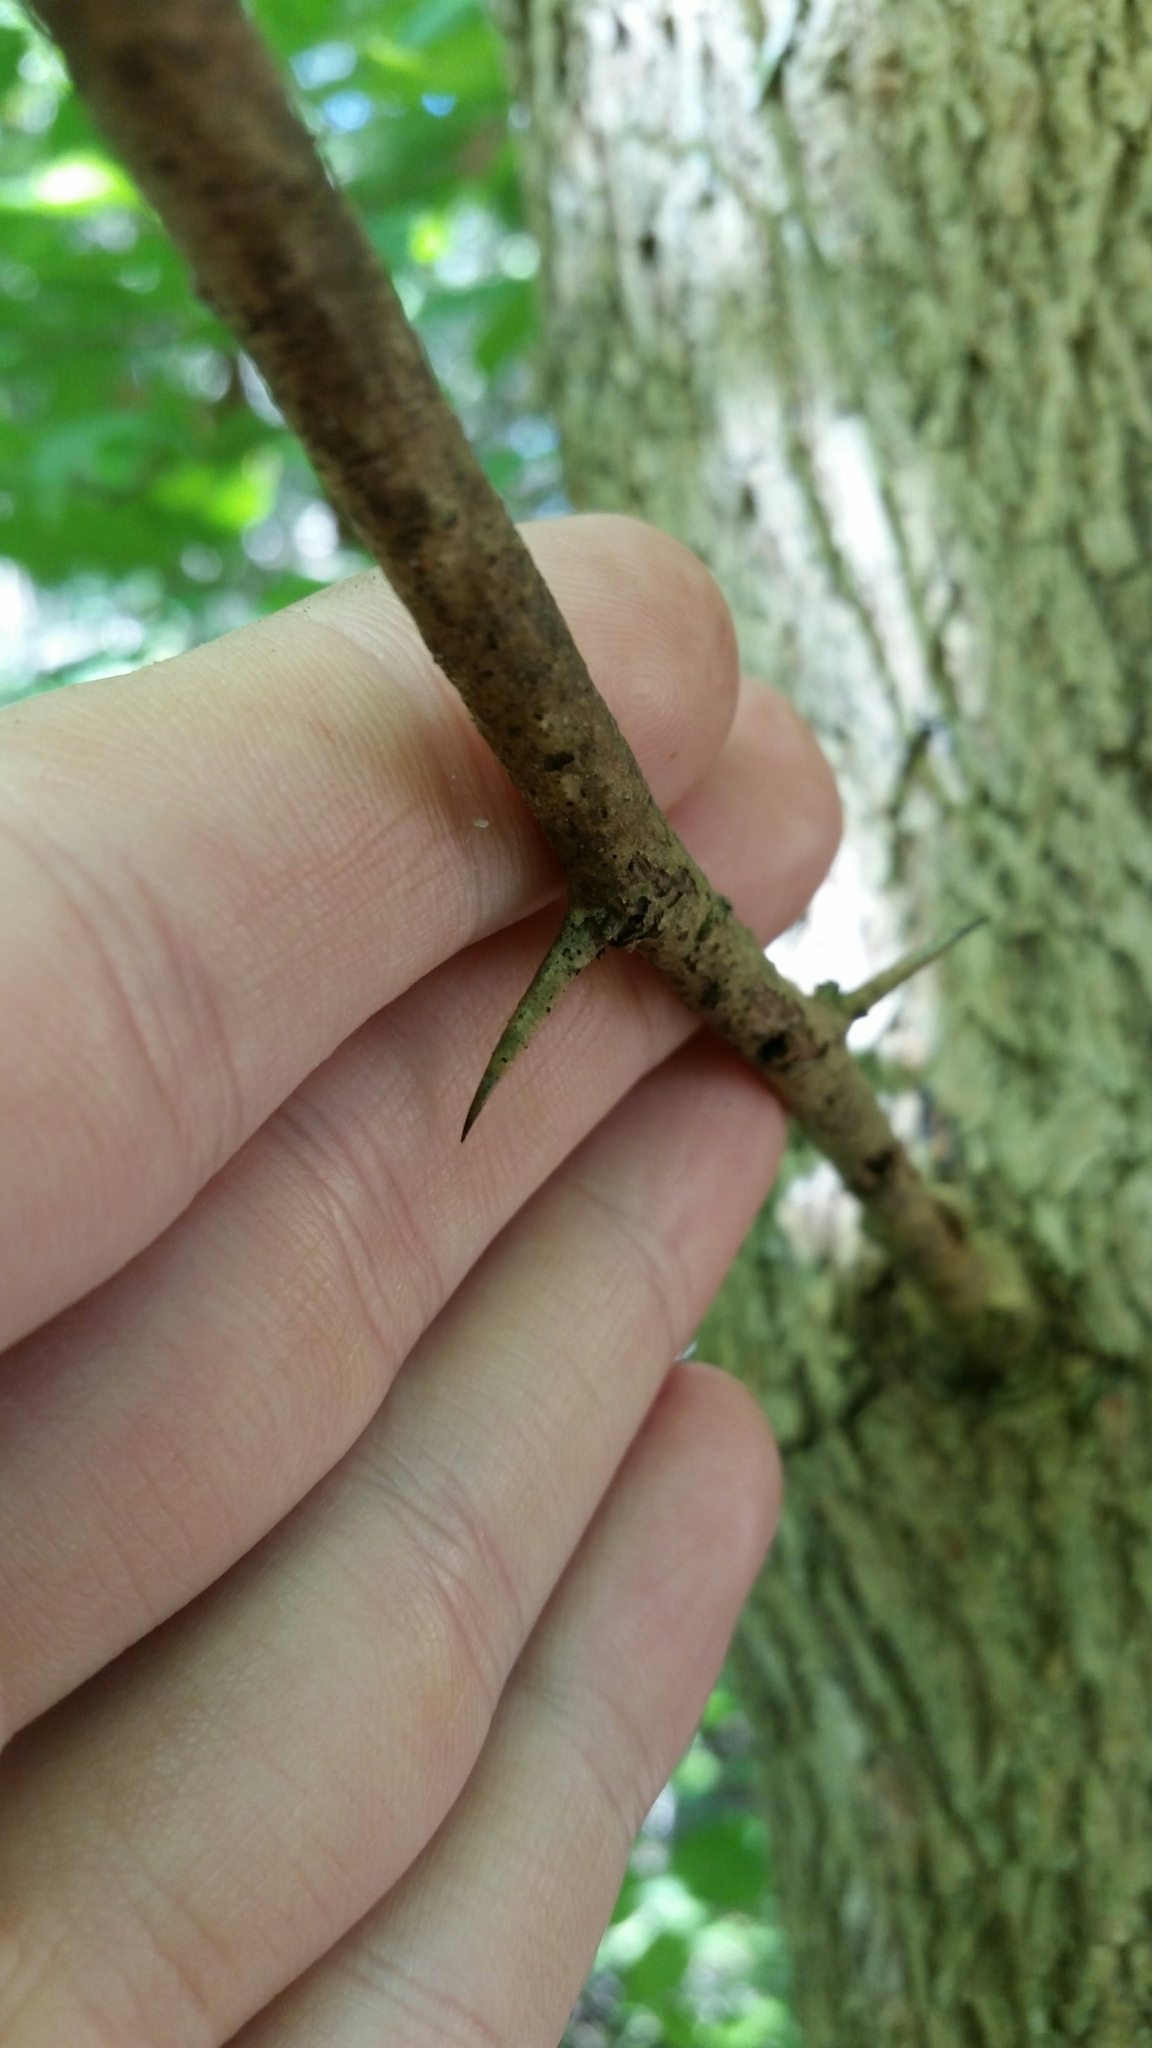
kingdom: Plantae
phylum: Tracheophyta
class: Magnoliopsida
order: Rosales
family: Moraceae
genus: Maclura
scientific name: Maclura pomifera
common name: Osage-orange
